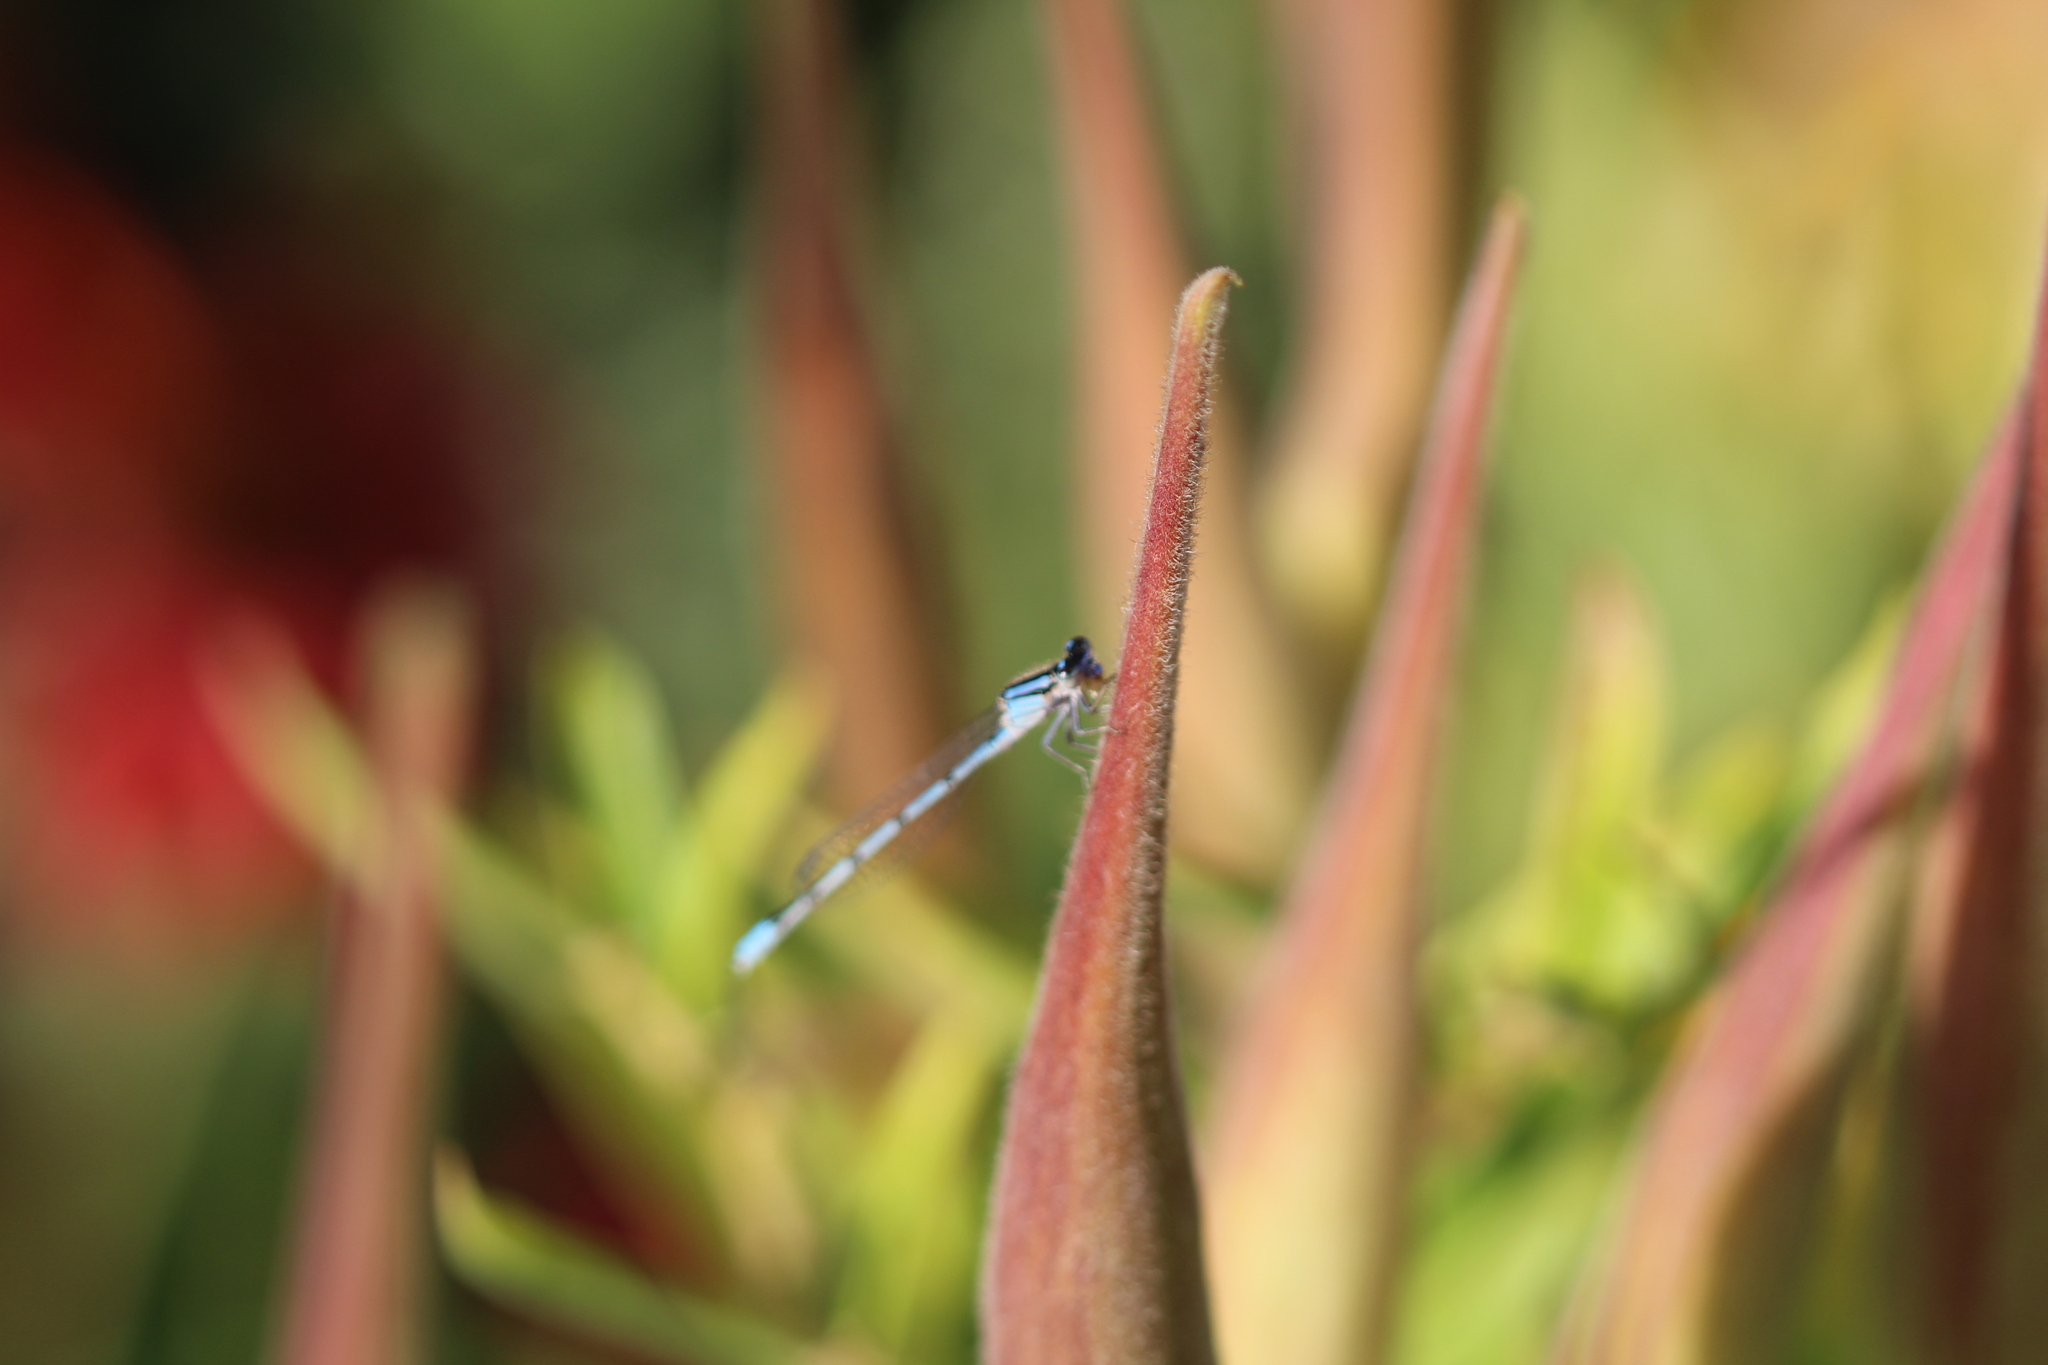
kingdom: Animalia
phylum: Arthropoda
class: Insecta
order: Odonata
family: Coenagrionidae
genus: Enallagma
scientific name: Enallagma civile
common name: Damselfly
